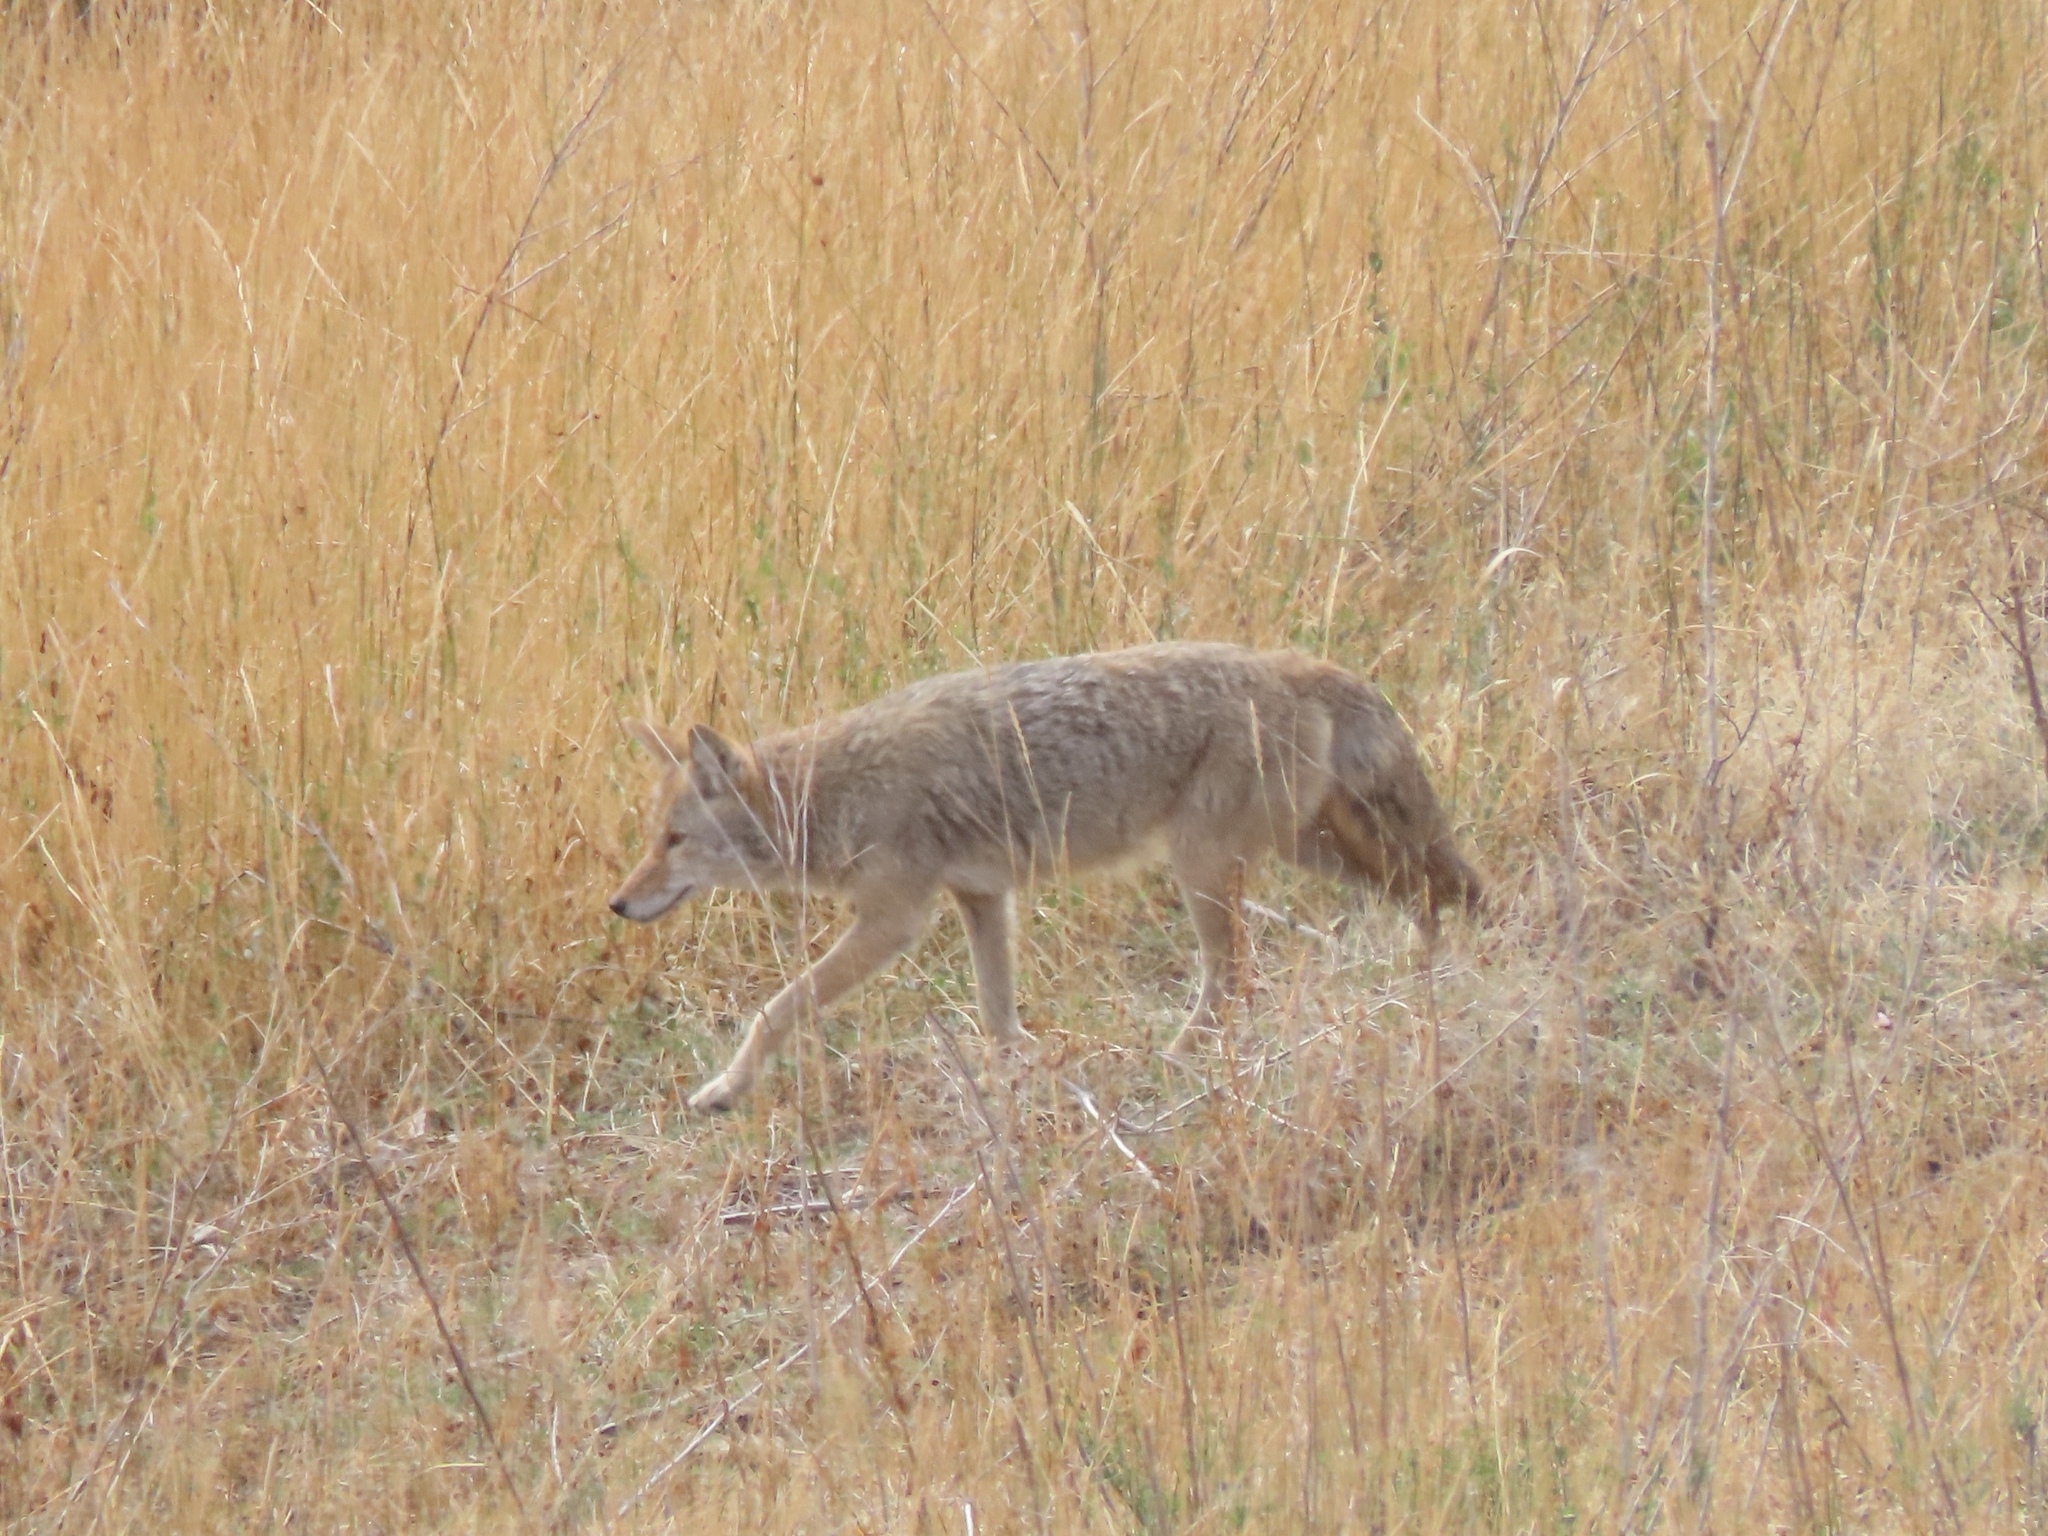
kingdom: Animalia
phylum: Chordata
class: Mammalia
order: Carnivora
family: Canidae
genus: Canis
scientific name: Canis latrans
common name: Coyote
